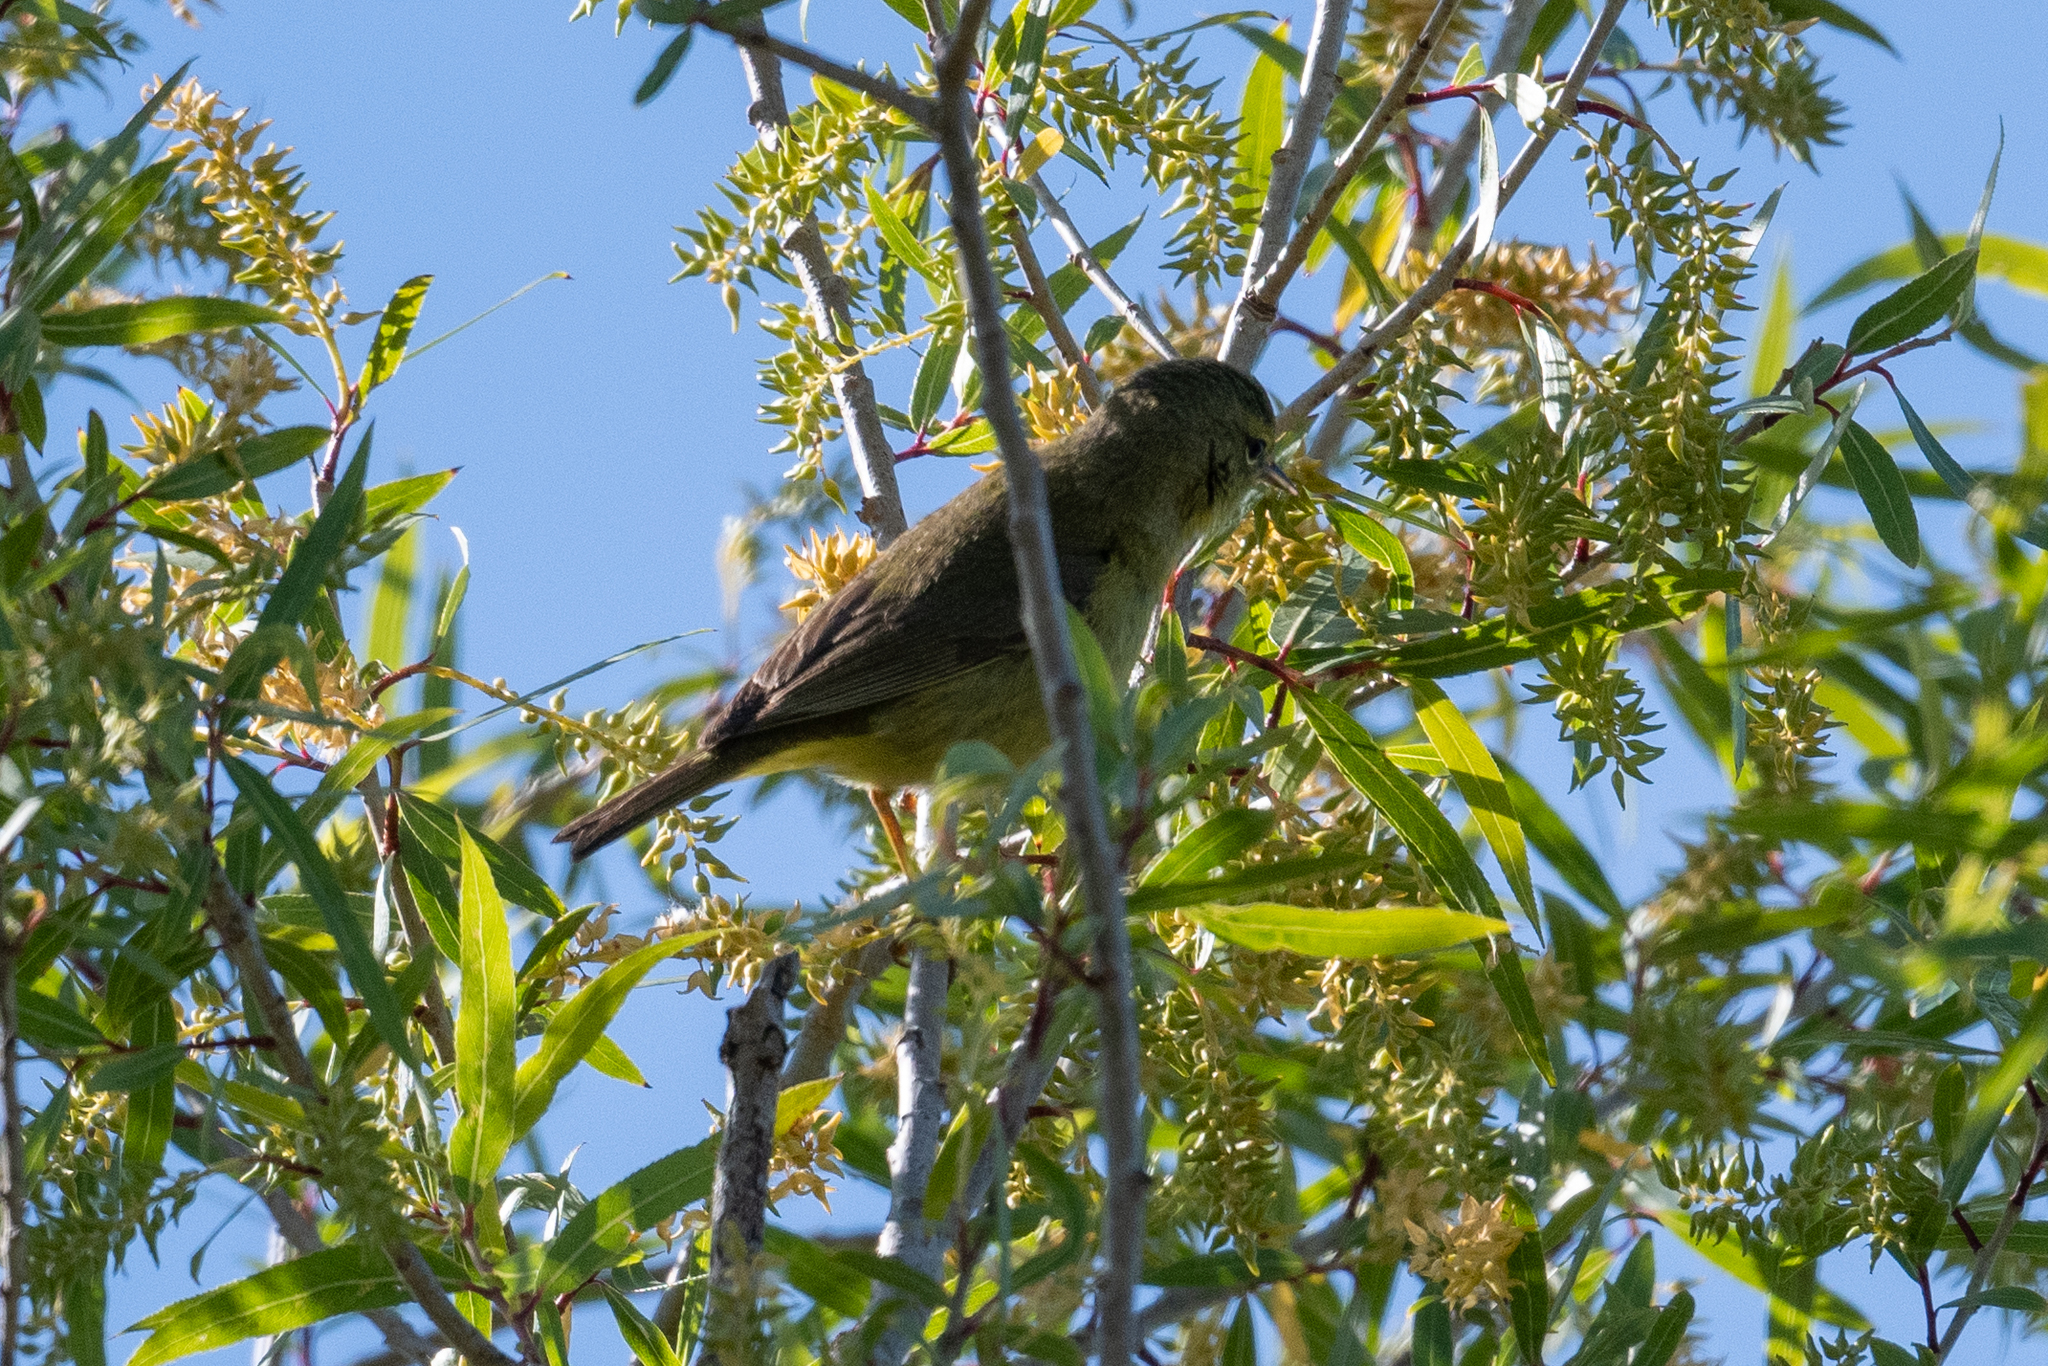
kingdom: Animalia
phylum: Chordata
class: Aves
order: Passeriformes
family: Parulidae
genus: Leiothlypis
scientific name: Leiothlypis celata
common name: Orange-crowned warbler
